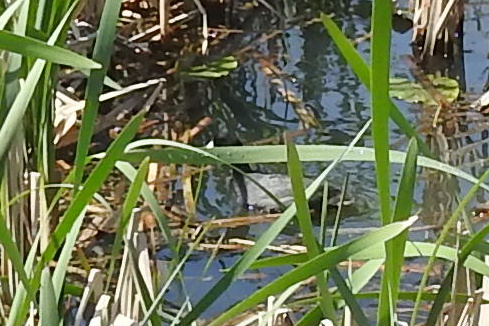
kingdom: Animalia
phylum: Chordata
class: Aves
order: Gruiformes
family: Rallidae
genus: Fulica
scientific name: Fulica americana
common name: American coot
